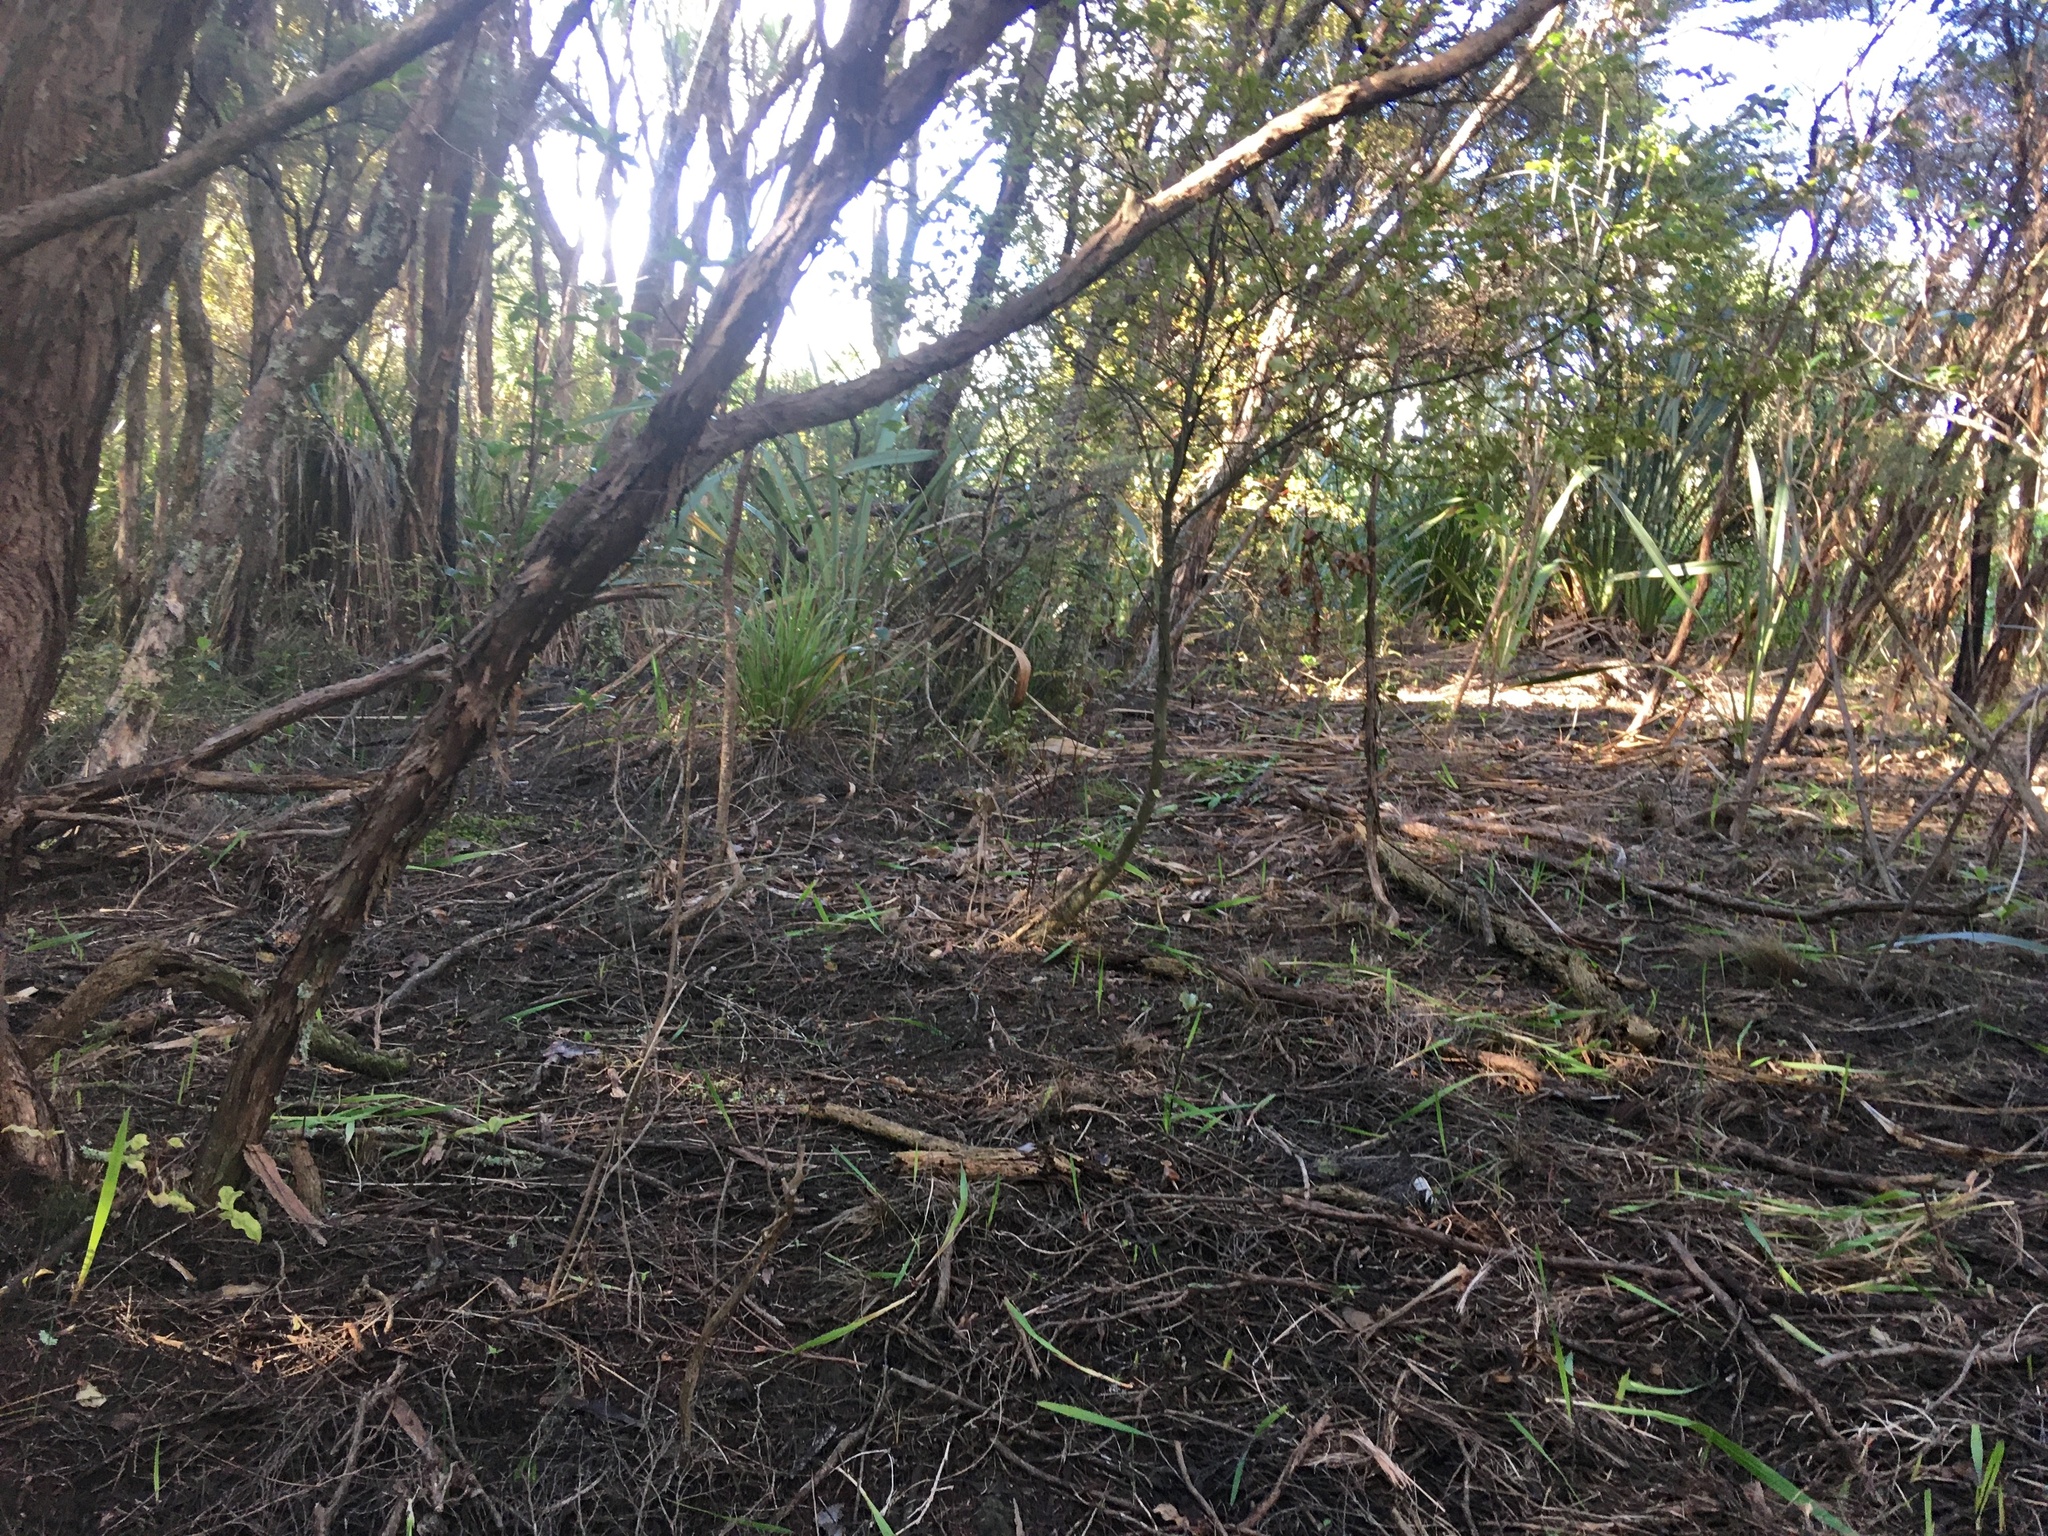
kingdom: Plantae
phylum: Tracheophyta
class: Liliopsida
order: Asparagales
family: Iridaceae
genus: Watsonia
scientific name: Watsonia meriana
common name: Bulbil bugle-lily
